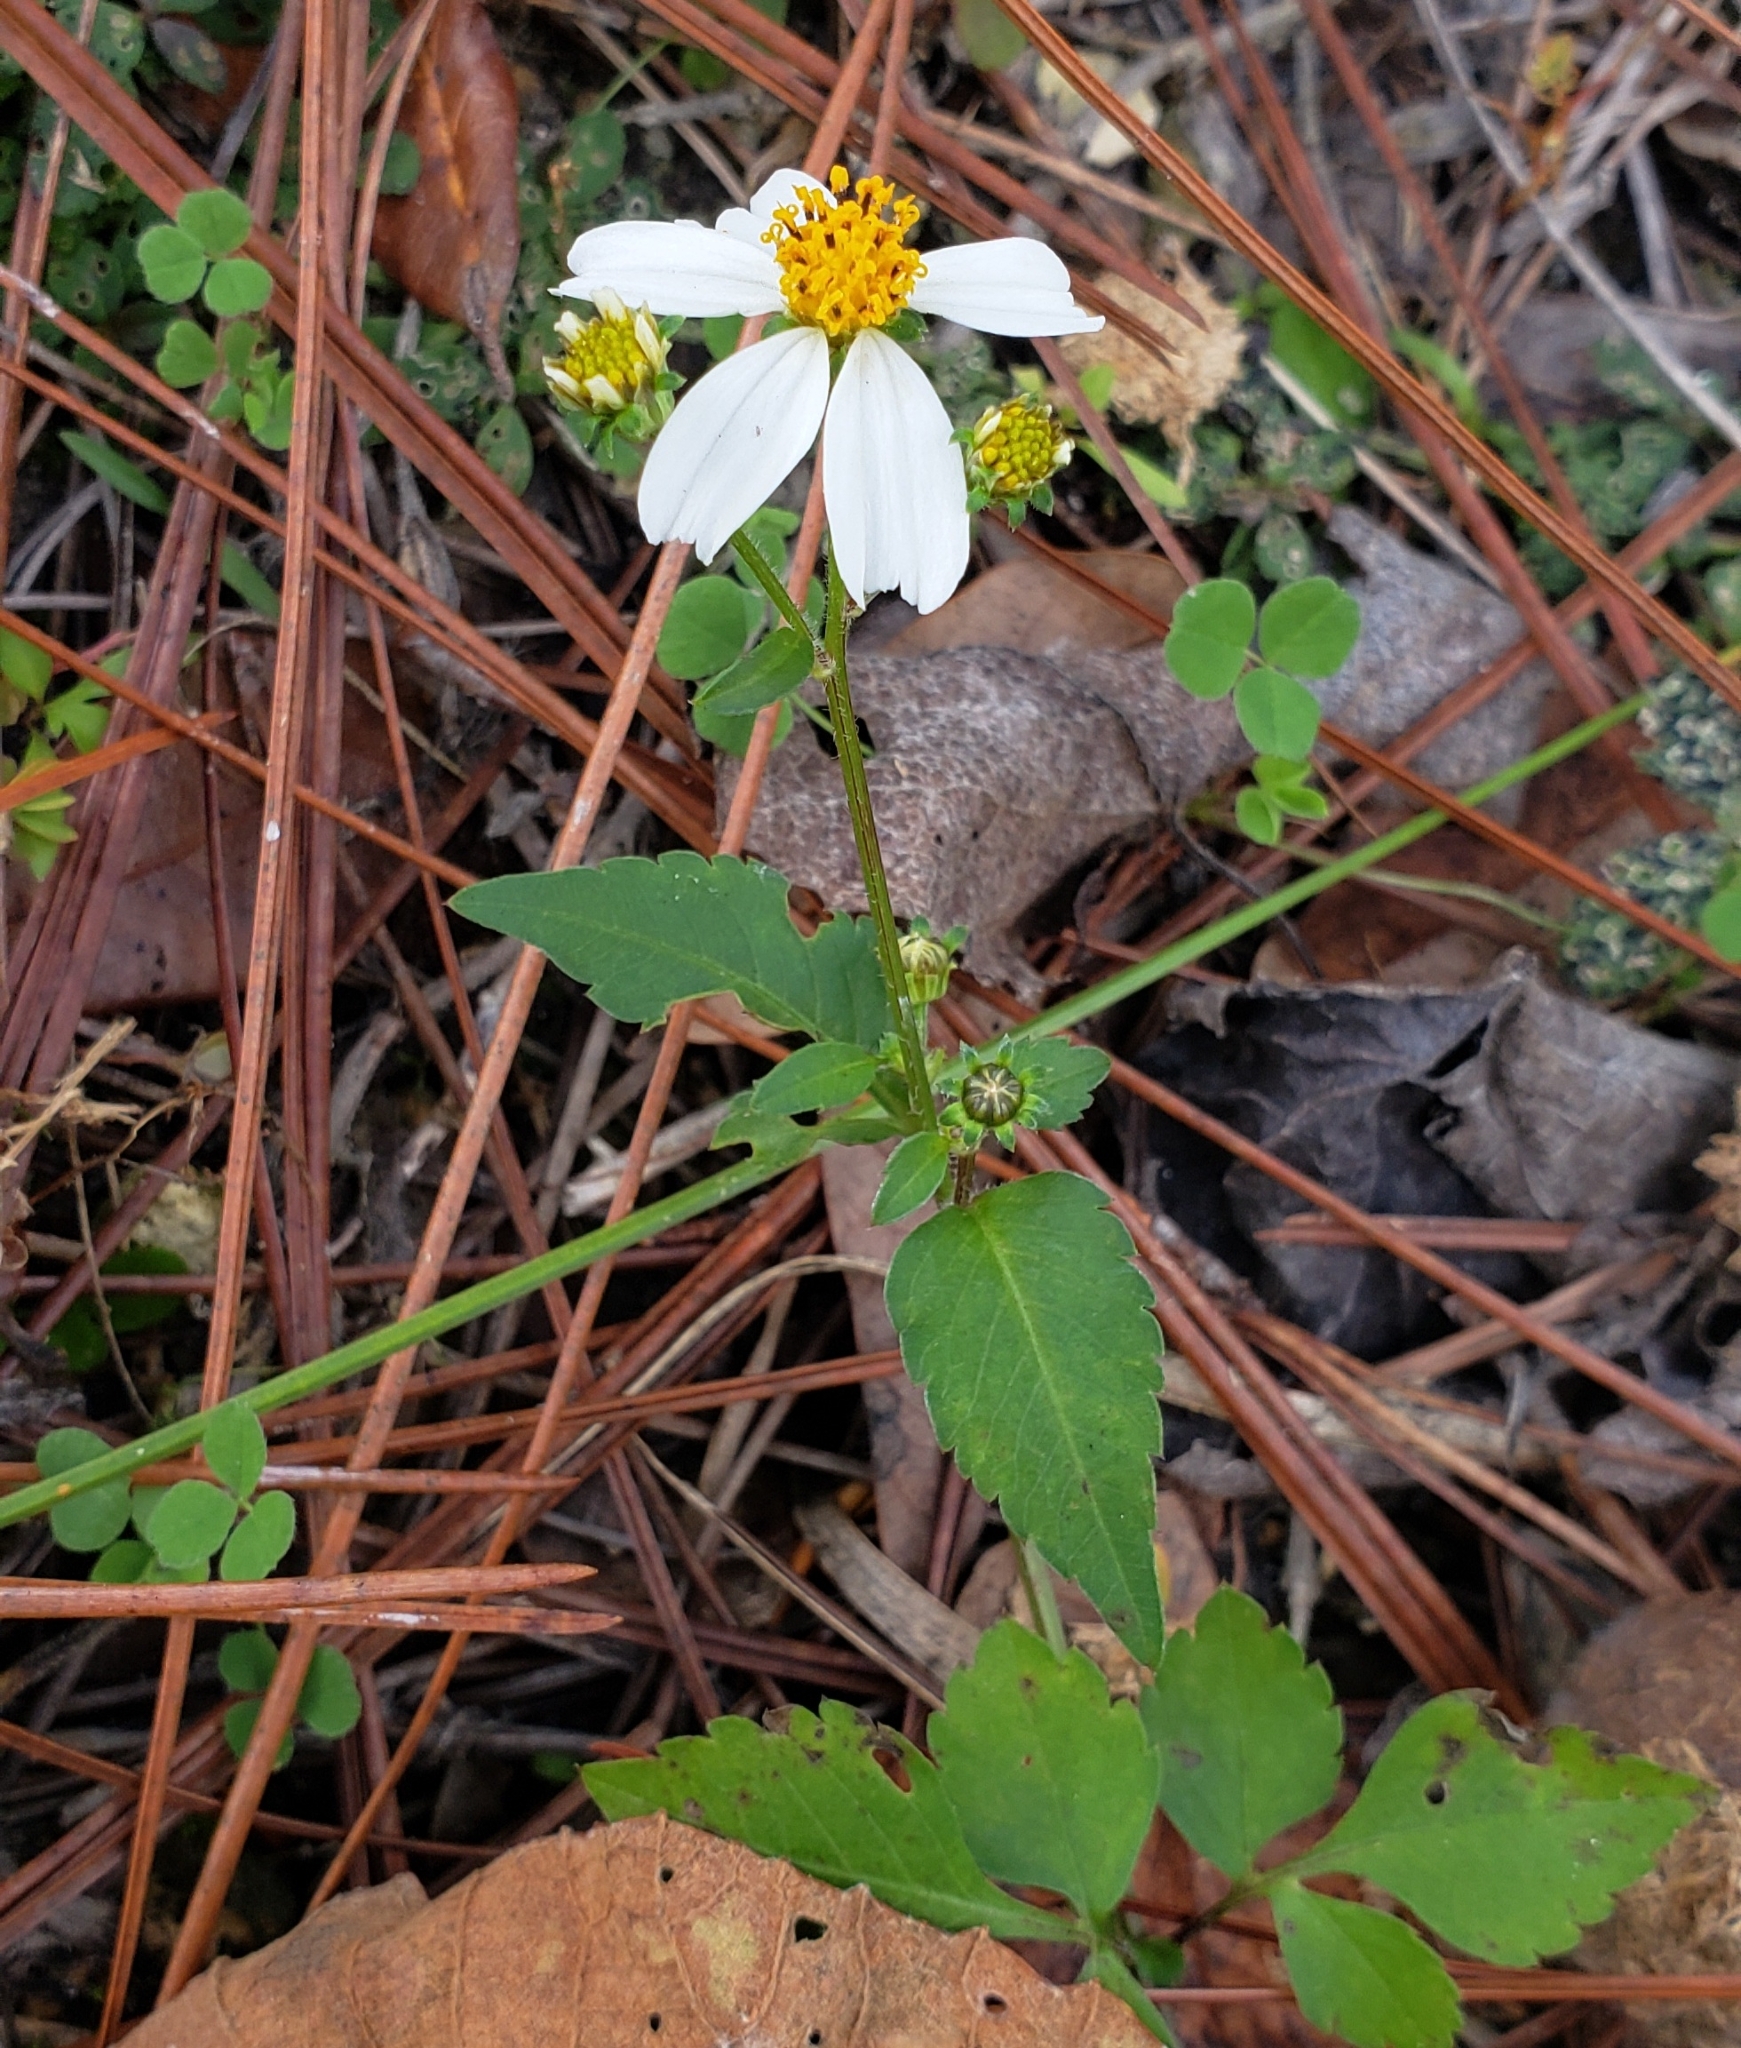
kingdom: Plantae
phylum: Tracheophyta
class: Magnoliopsida
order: Asterales
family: Asteraceae
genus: Bidens
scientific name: Bidens alba
